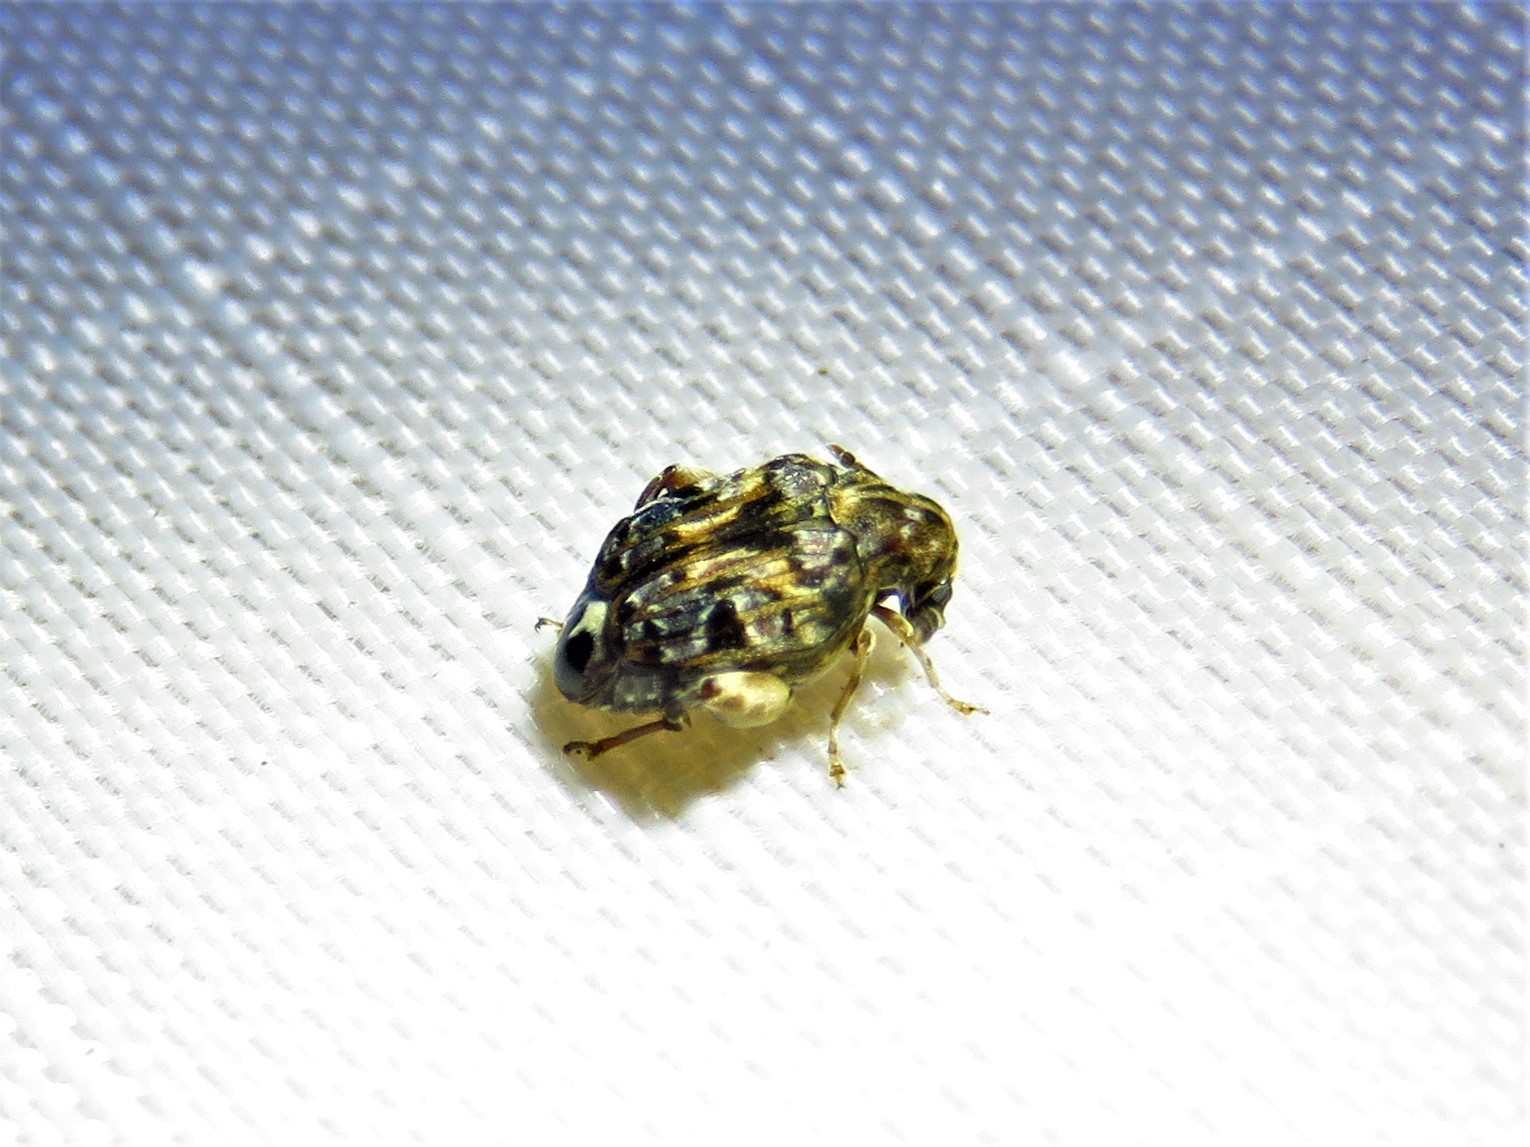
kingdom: Animalia
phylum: Arthropoda
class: Insecta
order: Coleoptera
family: Chrysomelidae
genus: Gibbobruchus
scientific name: Gibbobruchus mimus
